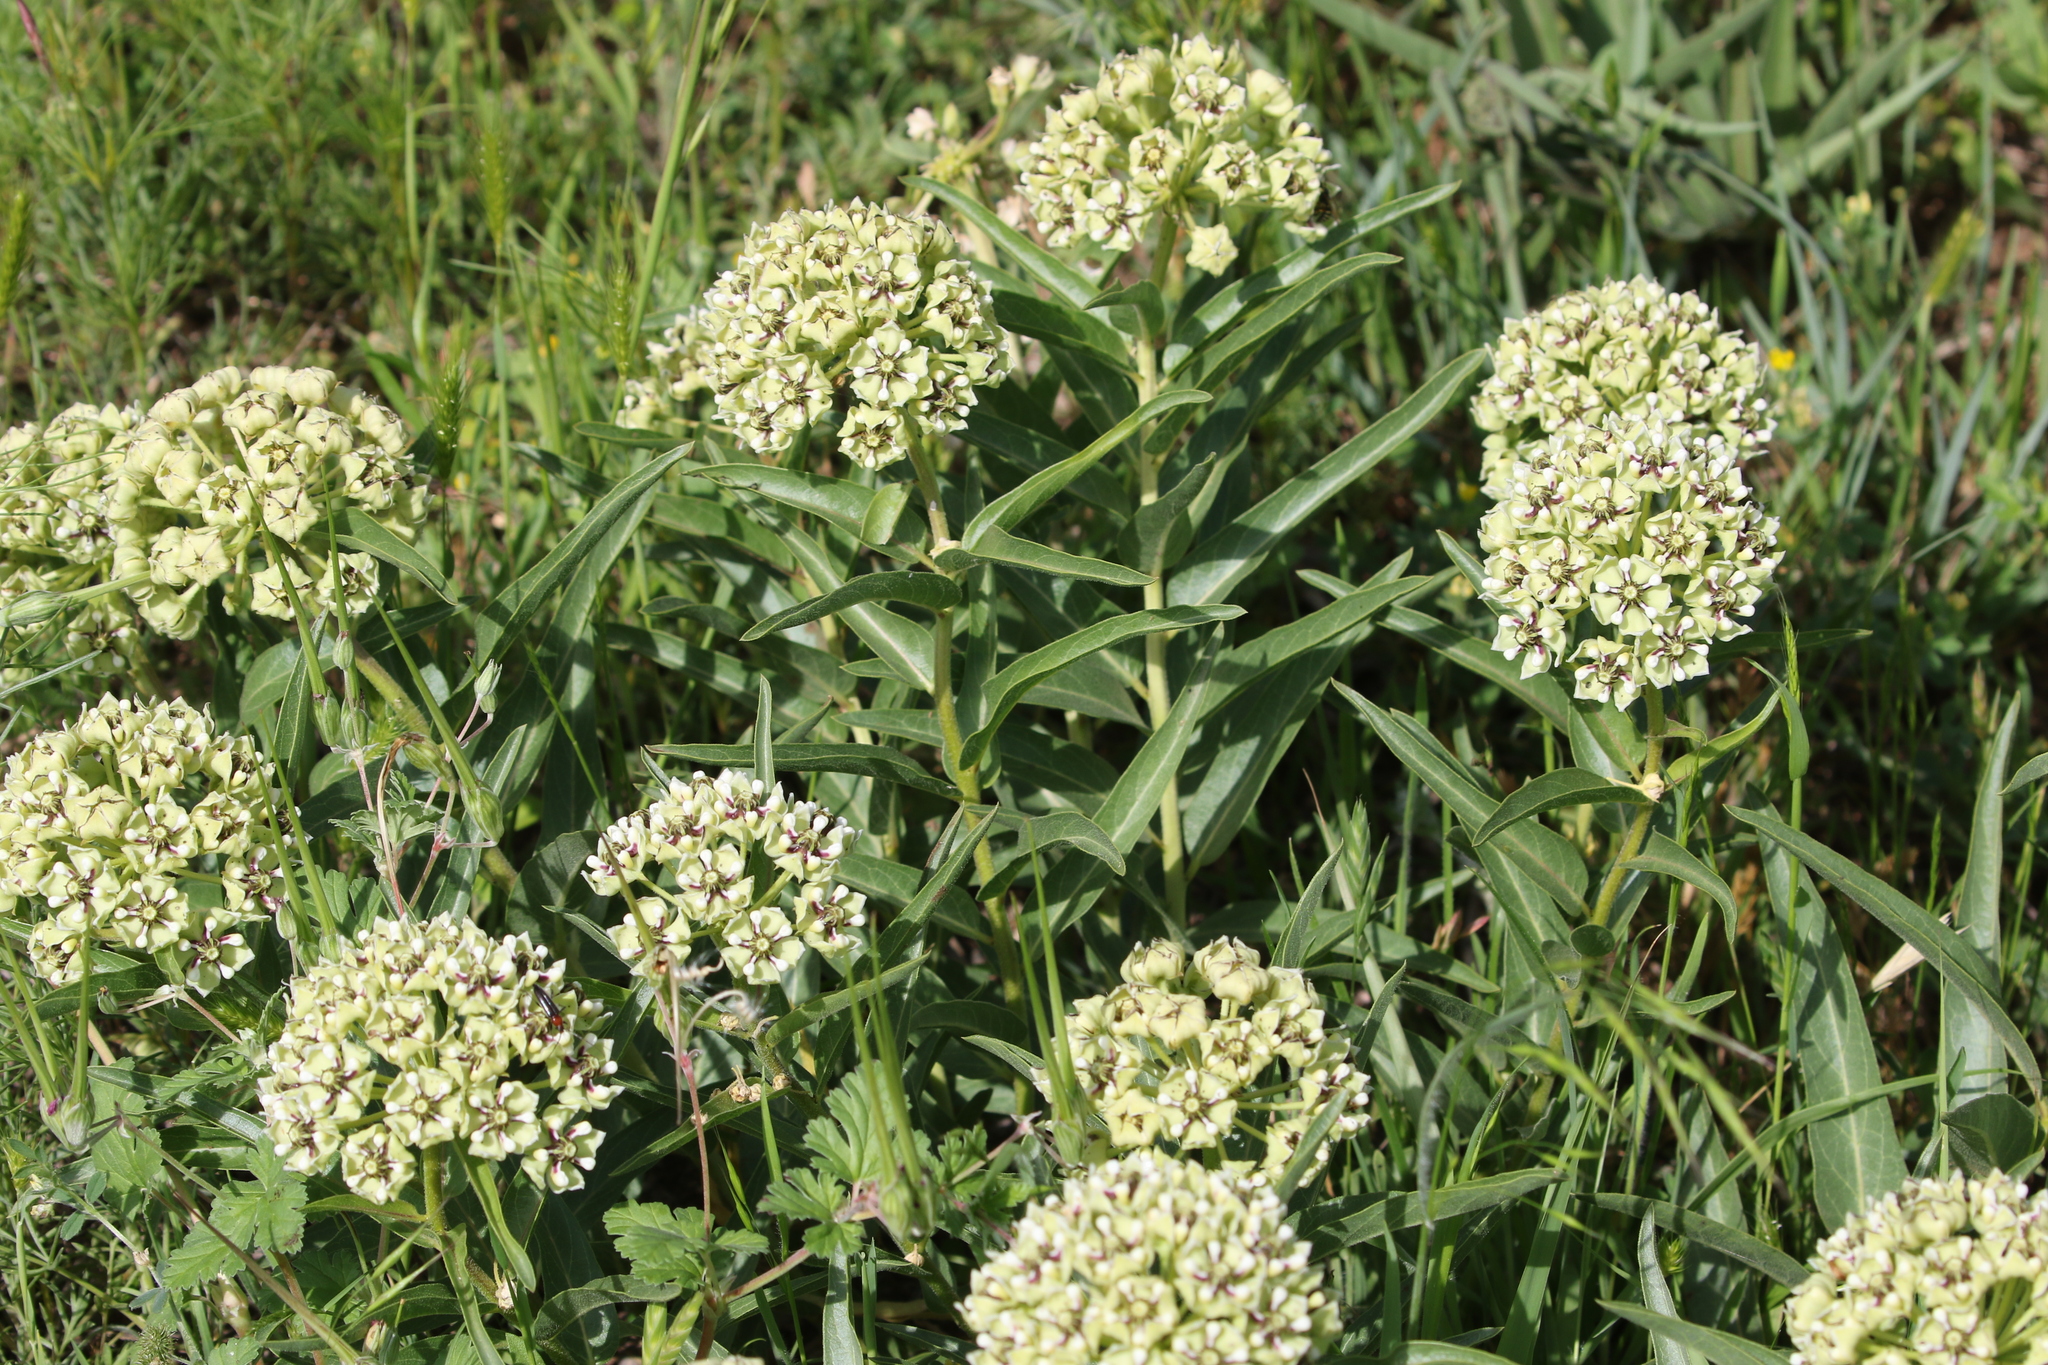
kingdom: Plantae
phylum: Tracheophyta
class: Magnoliopsida
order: Gentianales
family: Apocynaceae
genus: Asclepias
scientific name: Asclepias asperula
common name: Antelope horns
